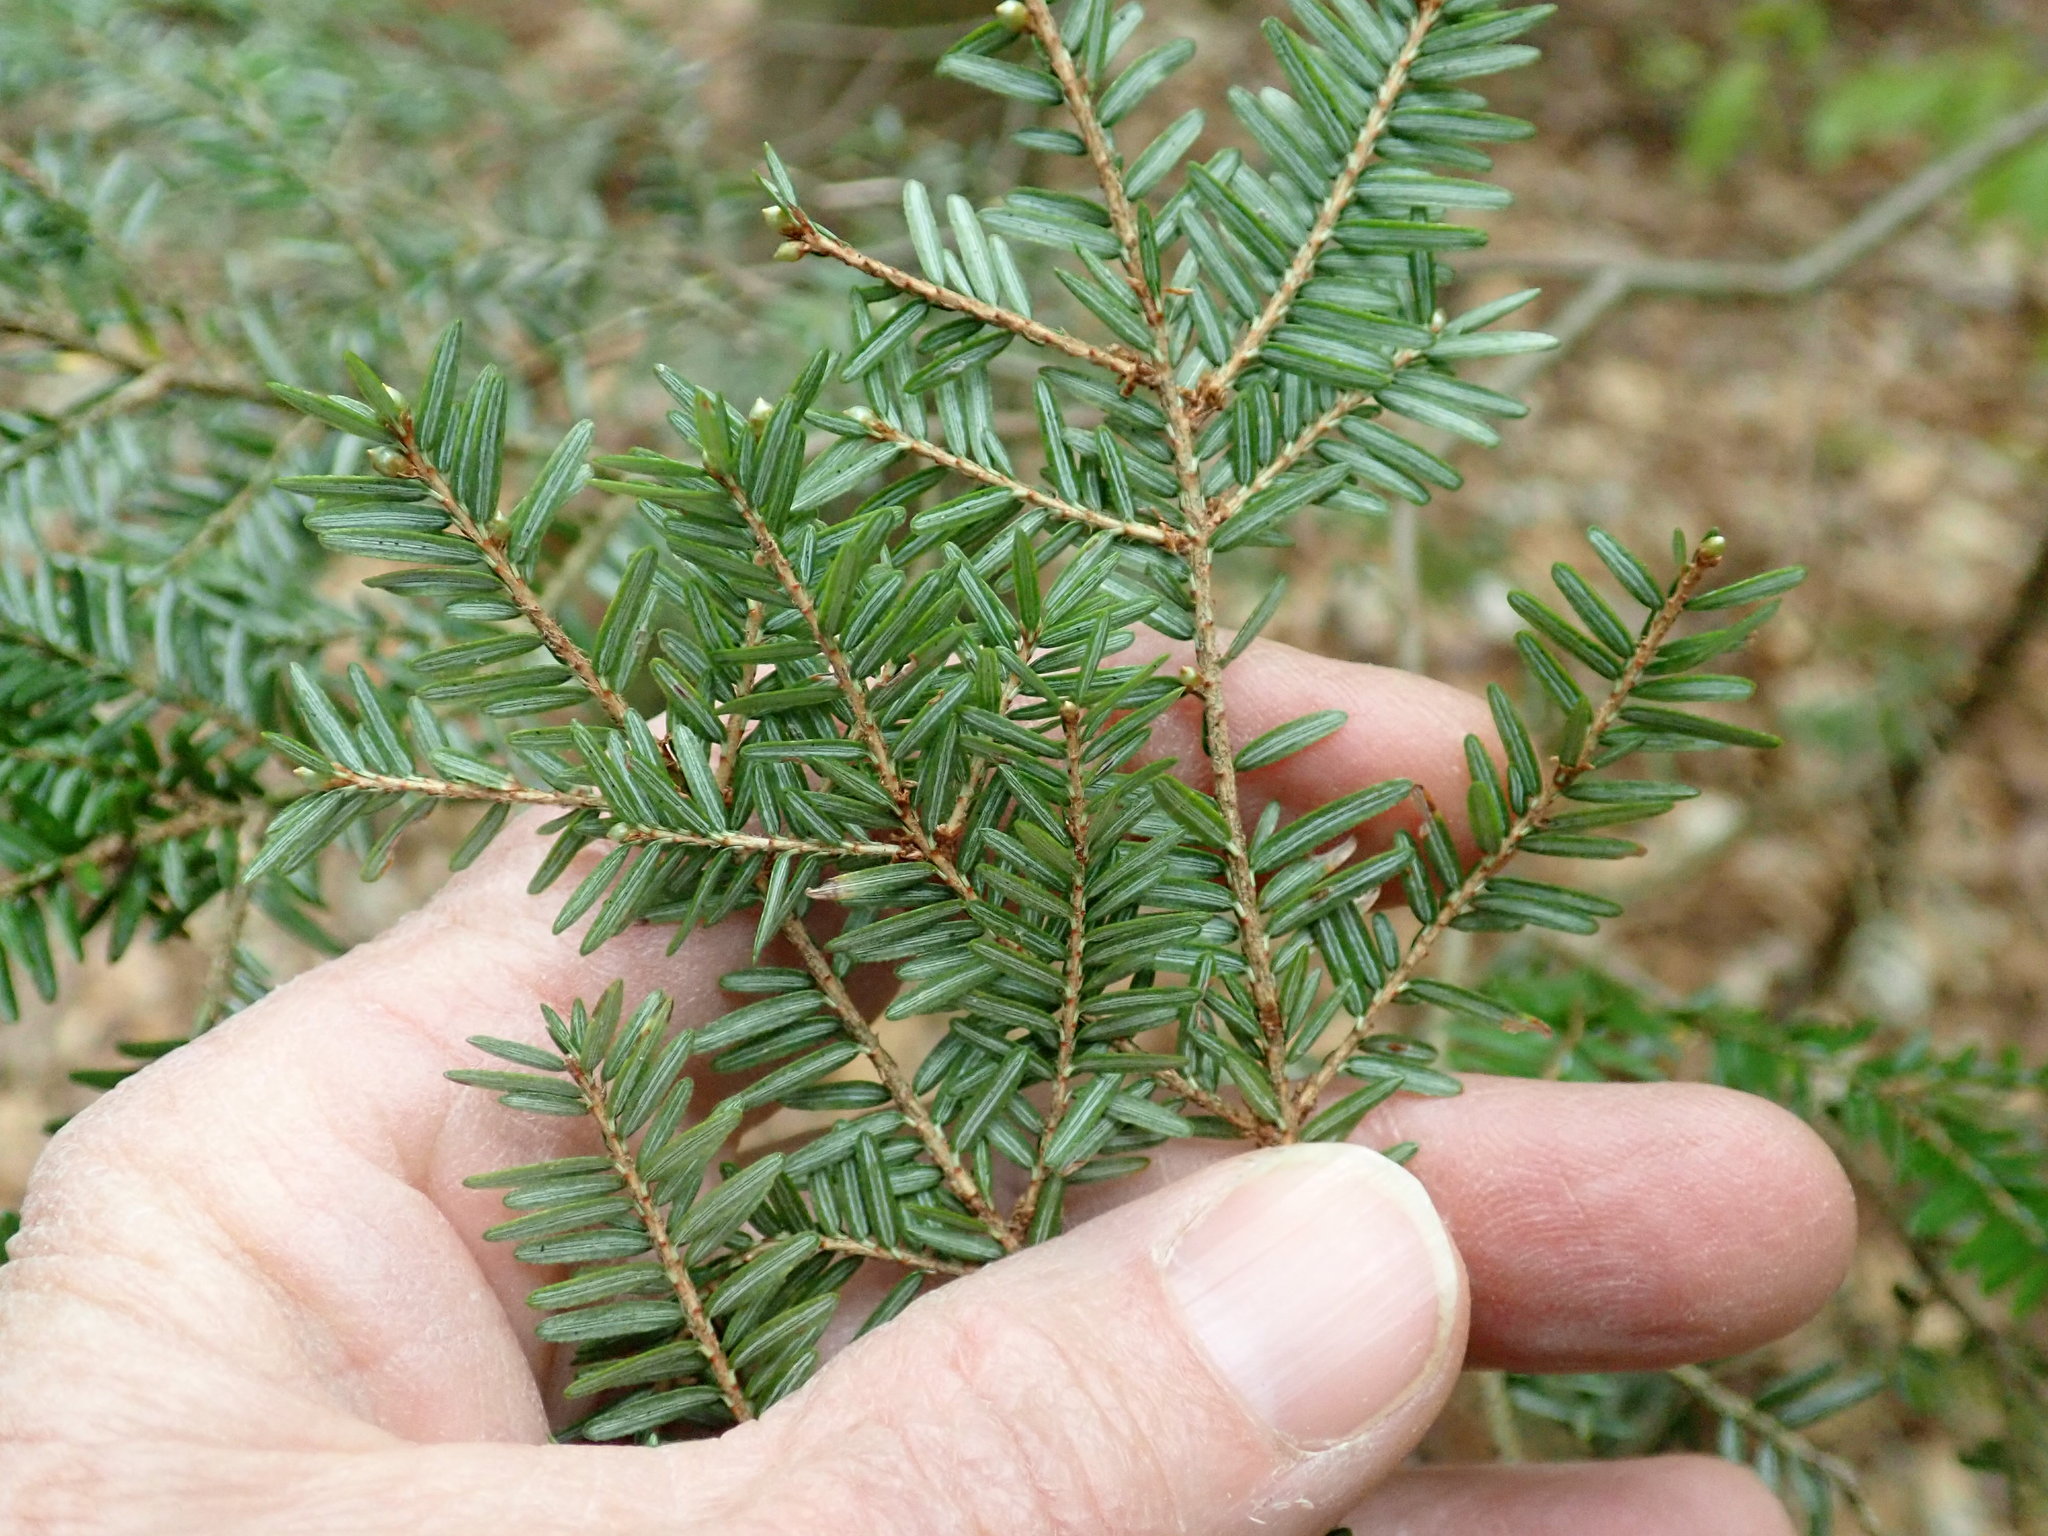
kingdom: Plantae
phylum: Tracheophyta
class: Pinopsida
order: Pinales
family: Pinaceae
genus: Tsuga
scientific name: Tsuga canadensis
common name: Eastern hemlock
